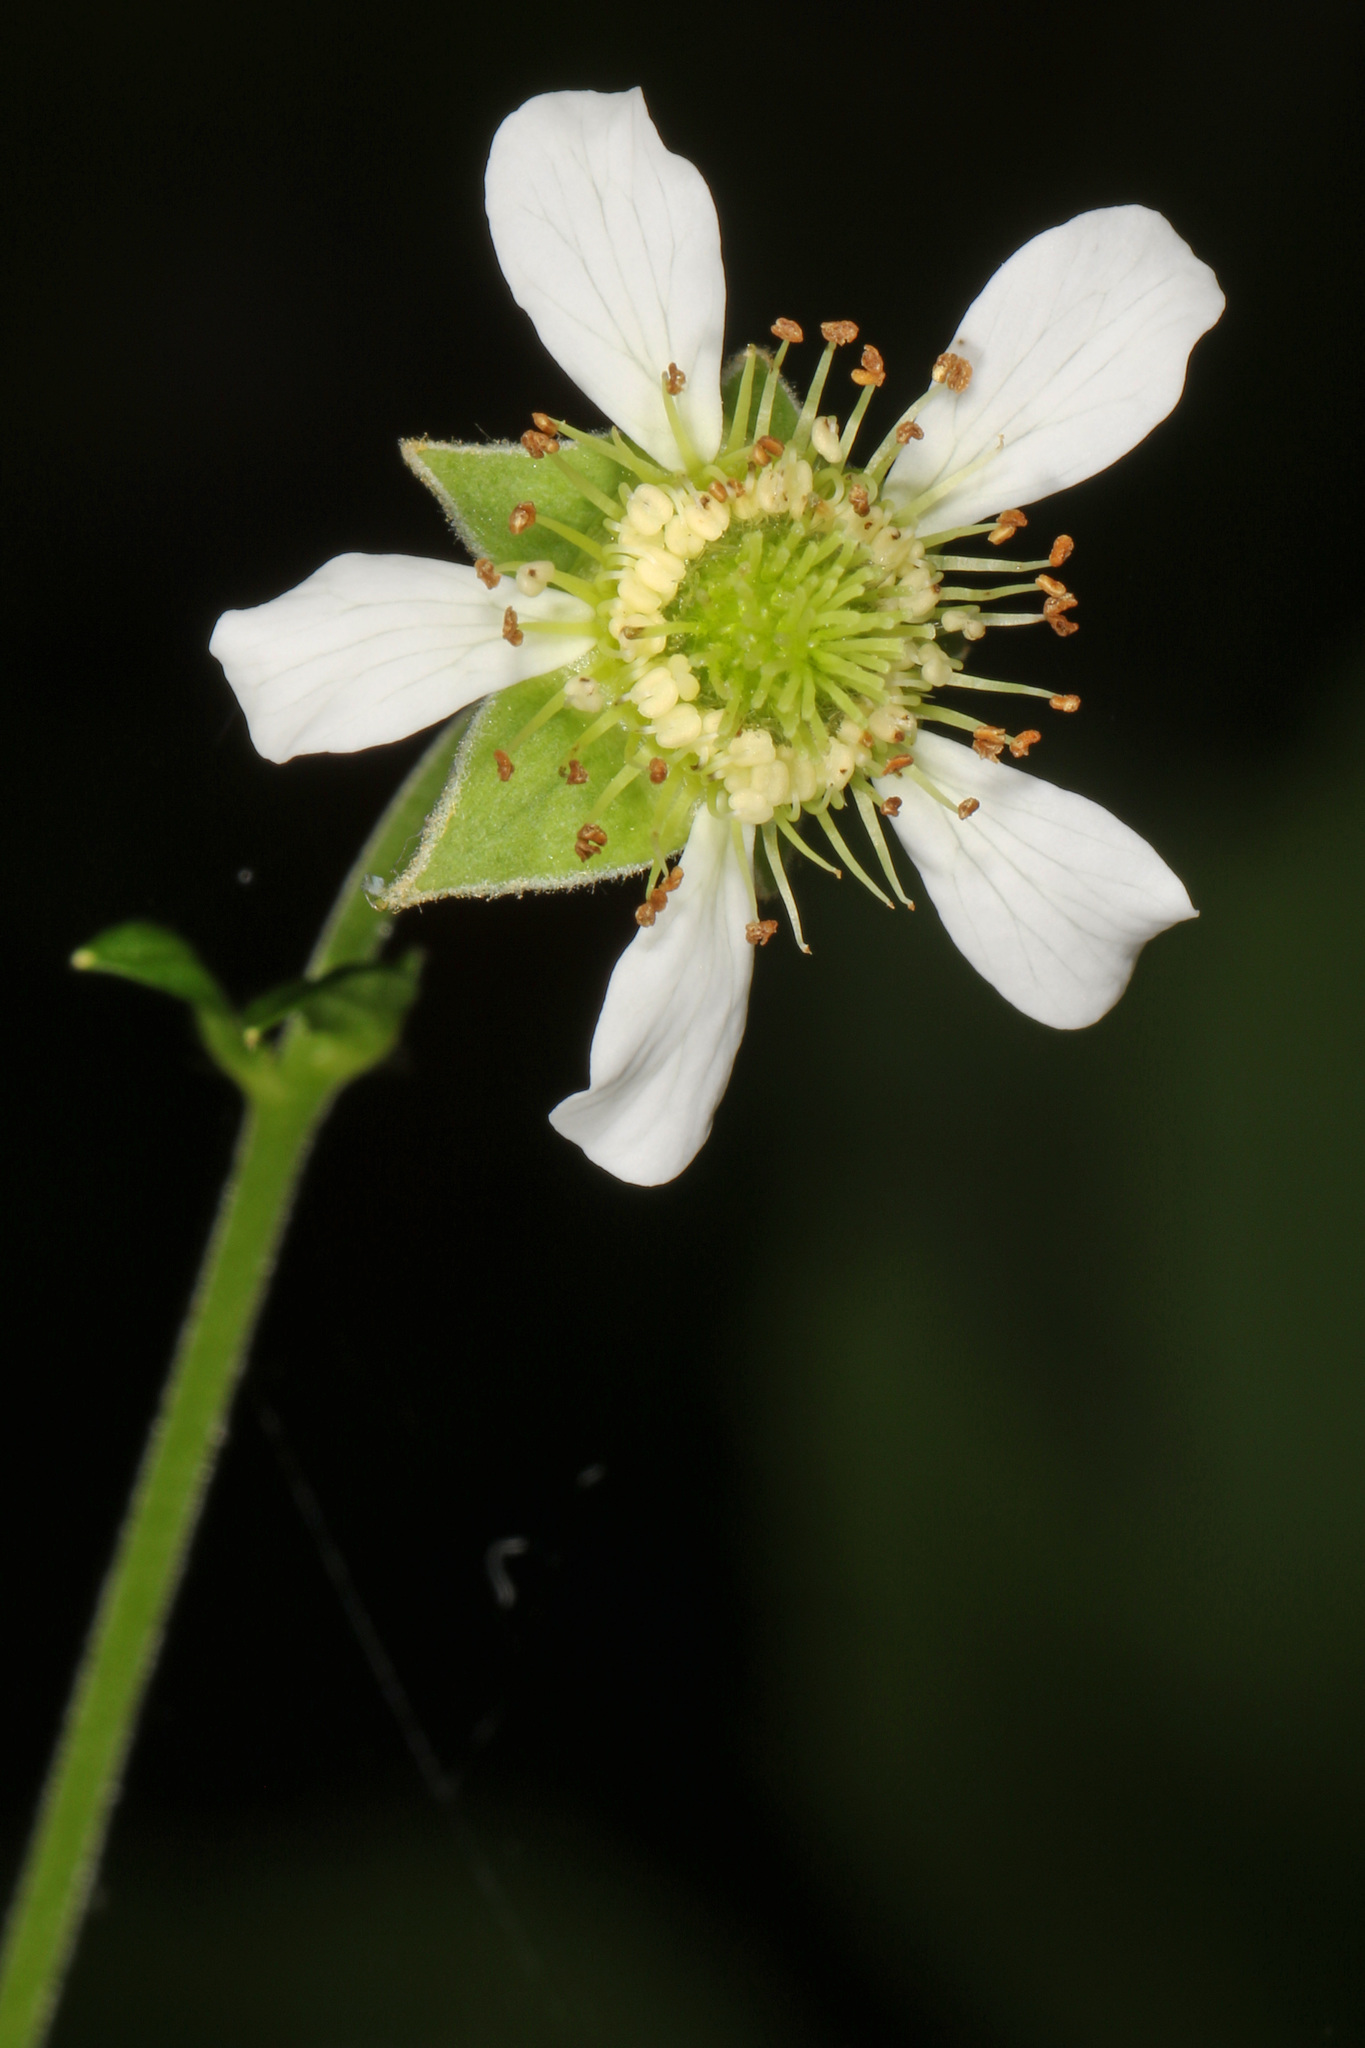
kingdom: Plantae
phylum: Tracheophyta
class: Magnoliopsida
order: Rosales
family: Rosaceae
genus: Geum
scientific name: Geum canadense
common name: White avens
